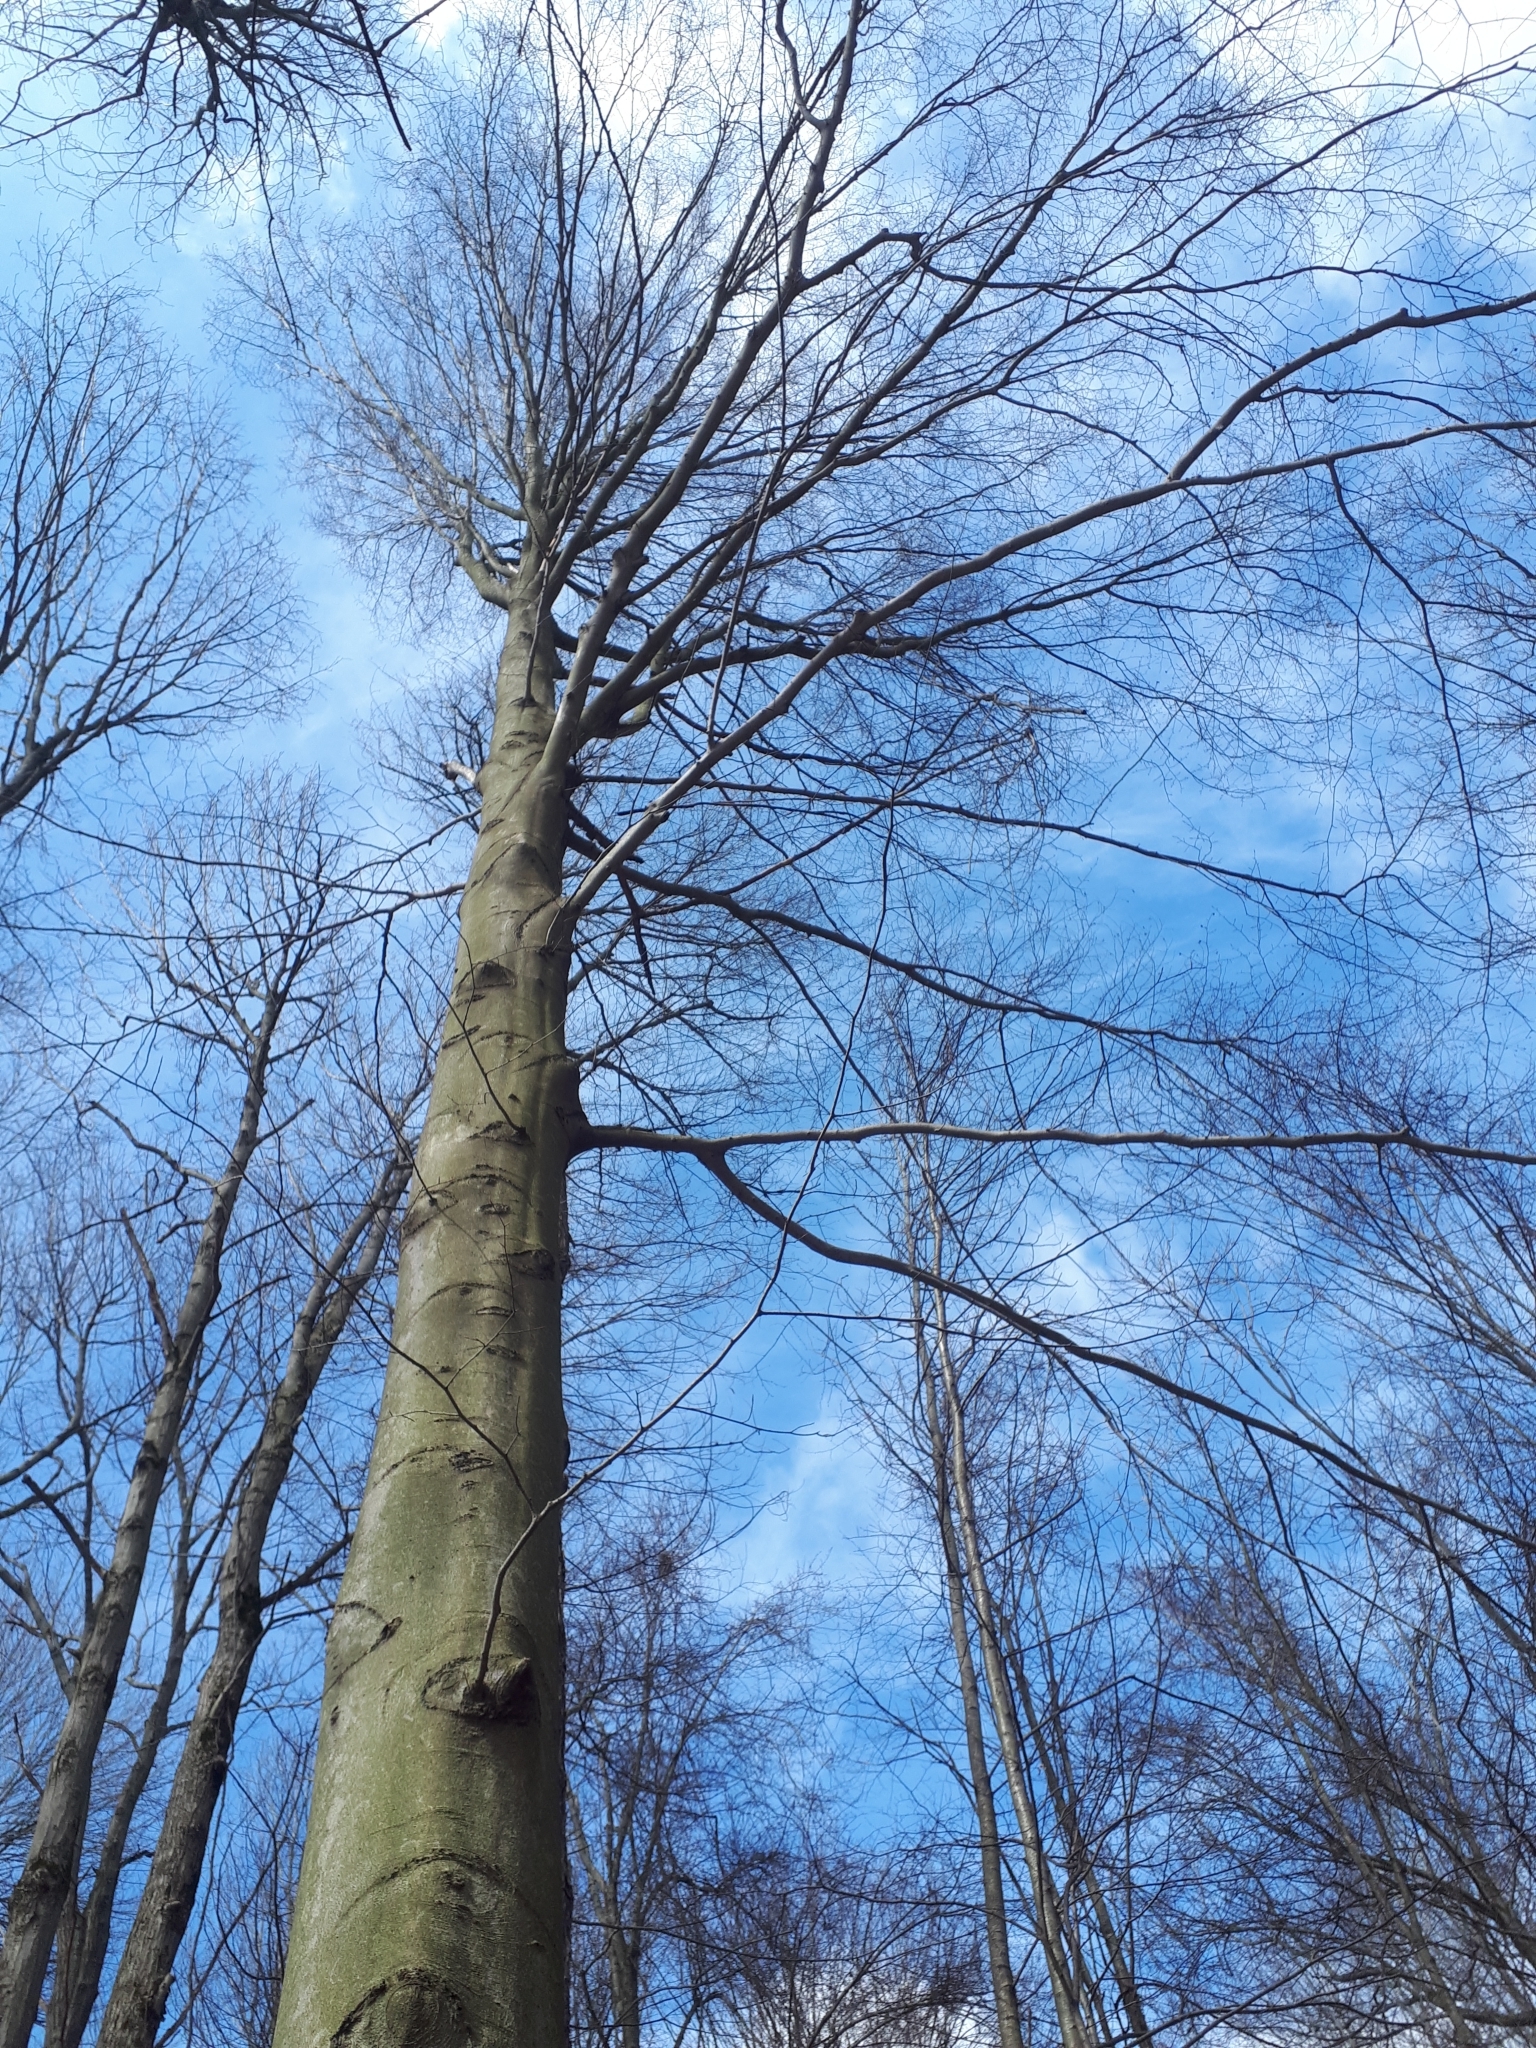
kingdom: Plantae
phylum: Tracheophyta
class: Magnoliopsida
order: Fagales
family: Fagaceae
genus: Fagus
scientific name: Fagus grandifolia
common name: American beech
